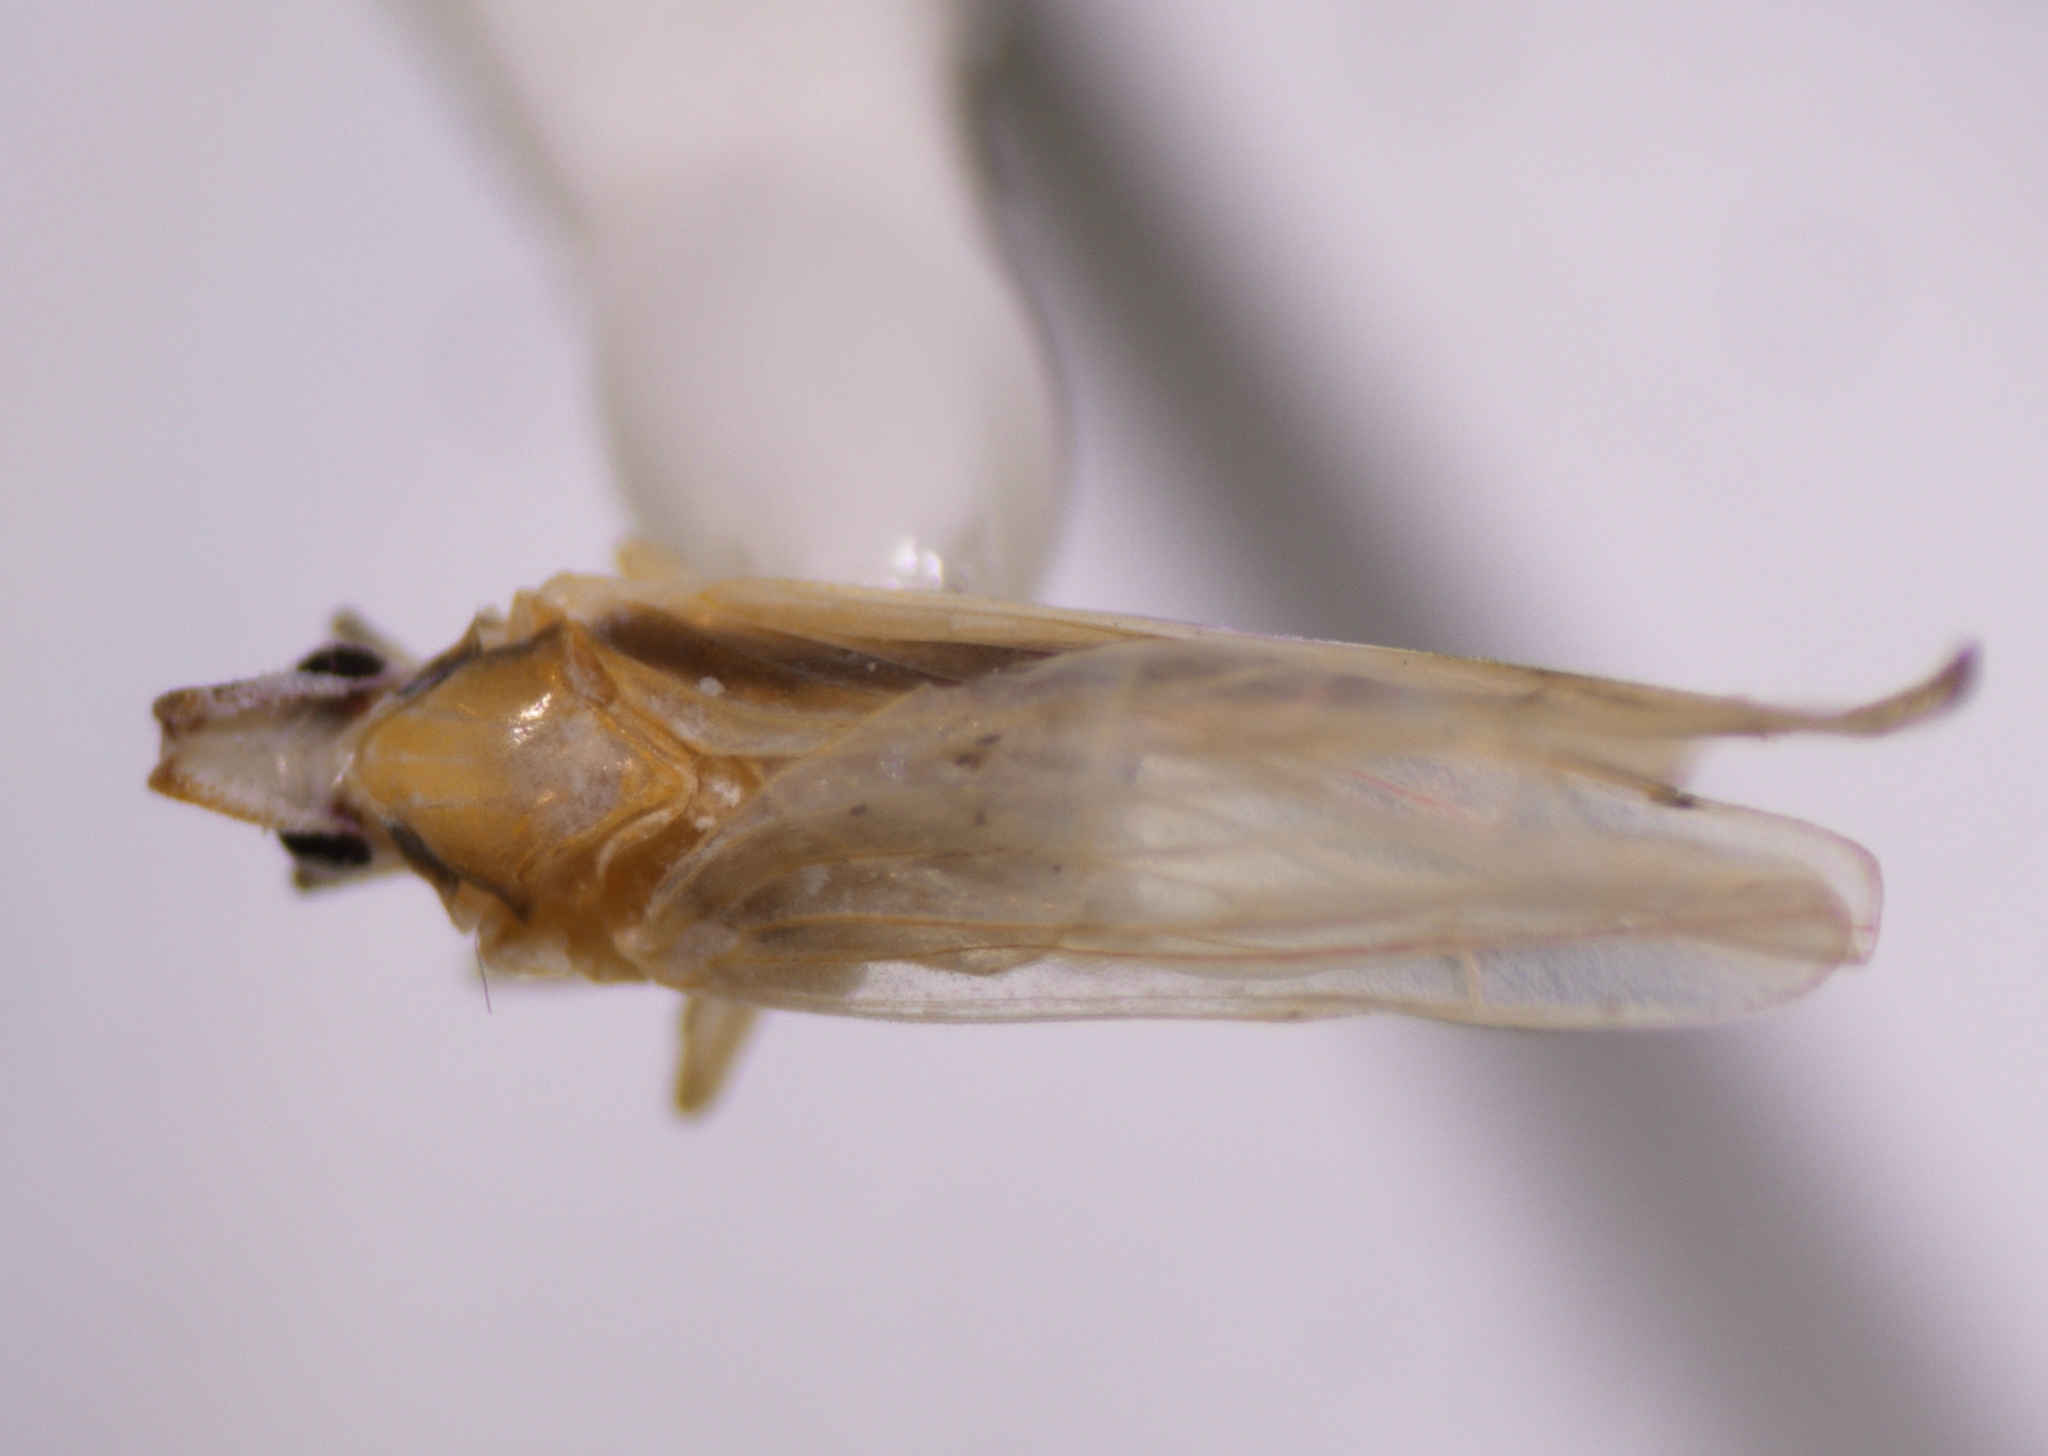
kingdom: Animalia
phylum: Arthropoda
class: Insecta
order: Hemiptera
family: Derbidae
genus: Swezeyia
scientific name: Swezeyia lyricen
